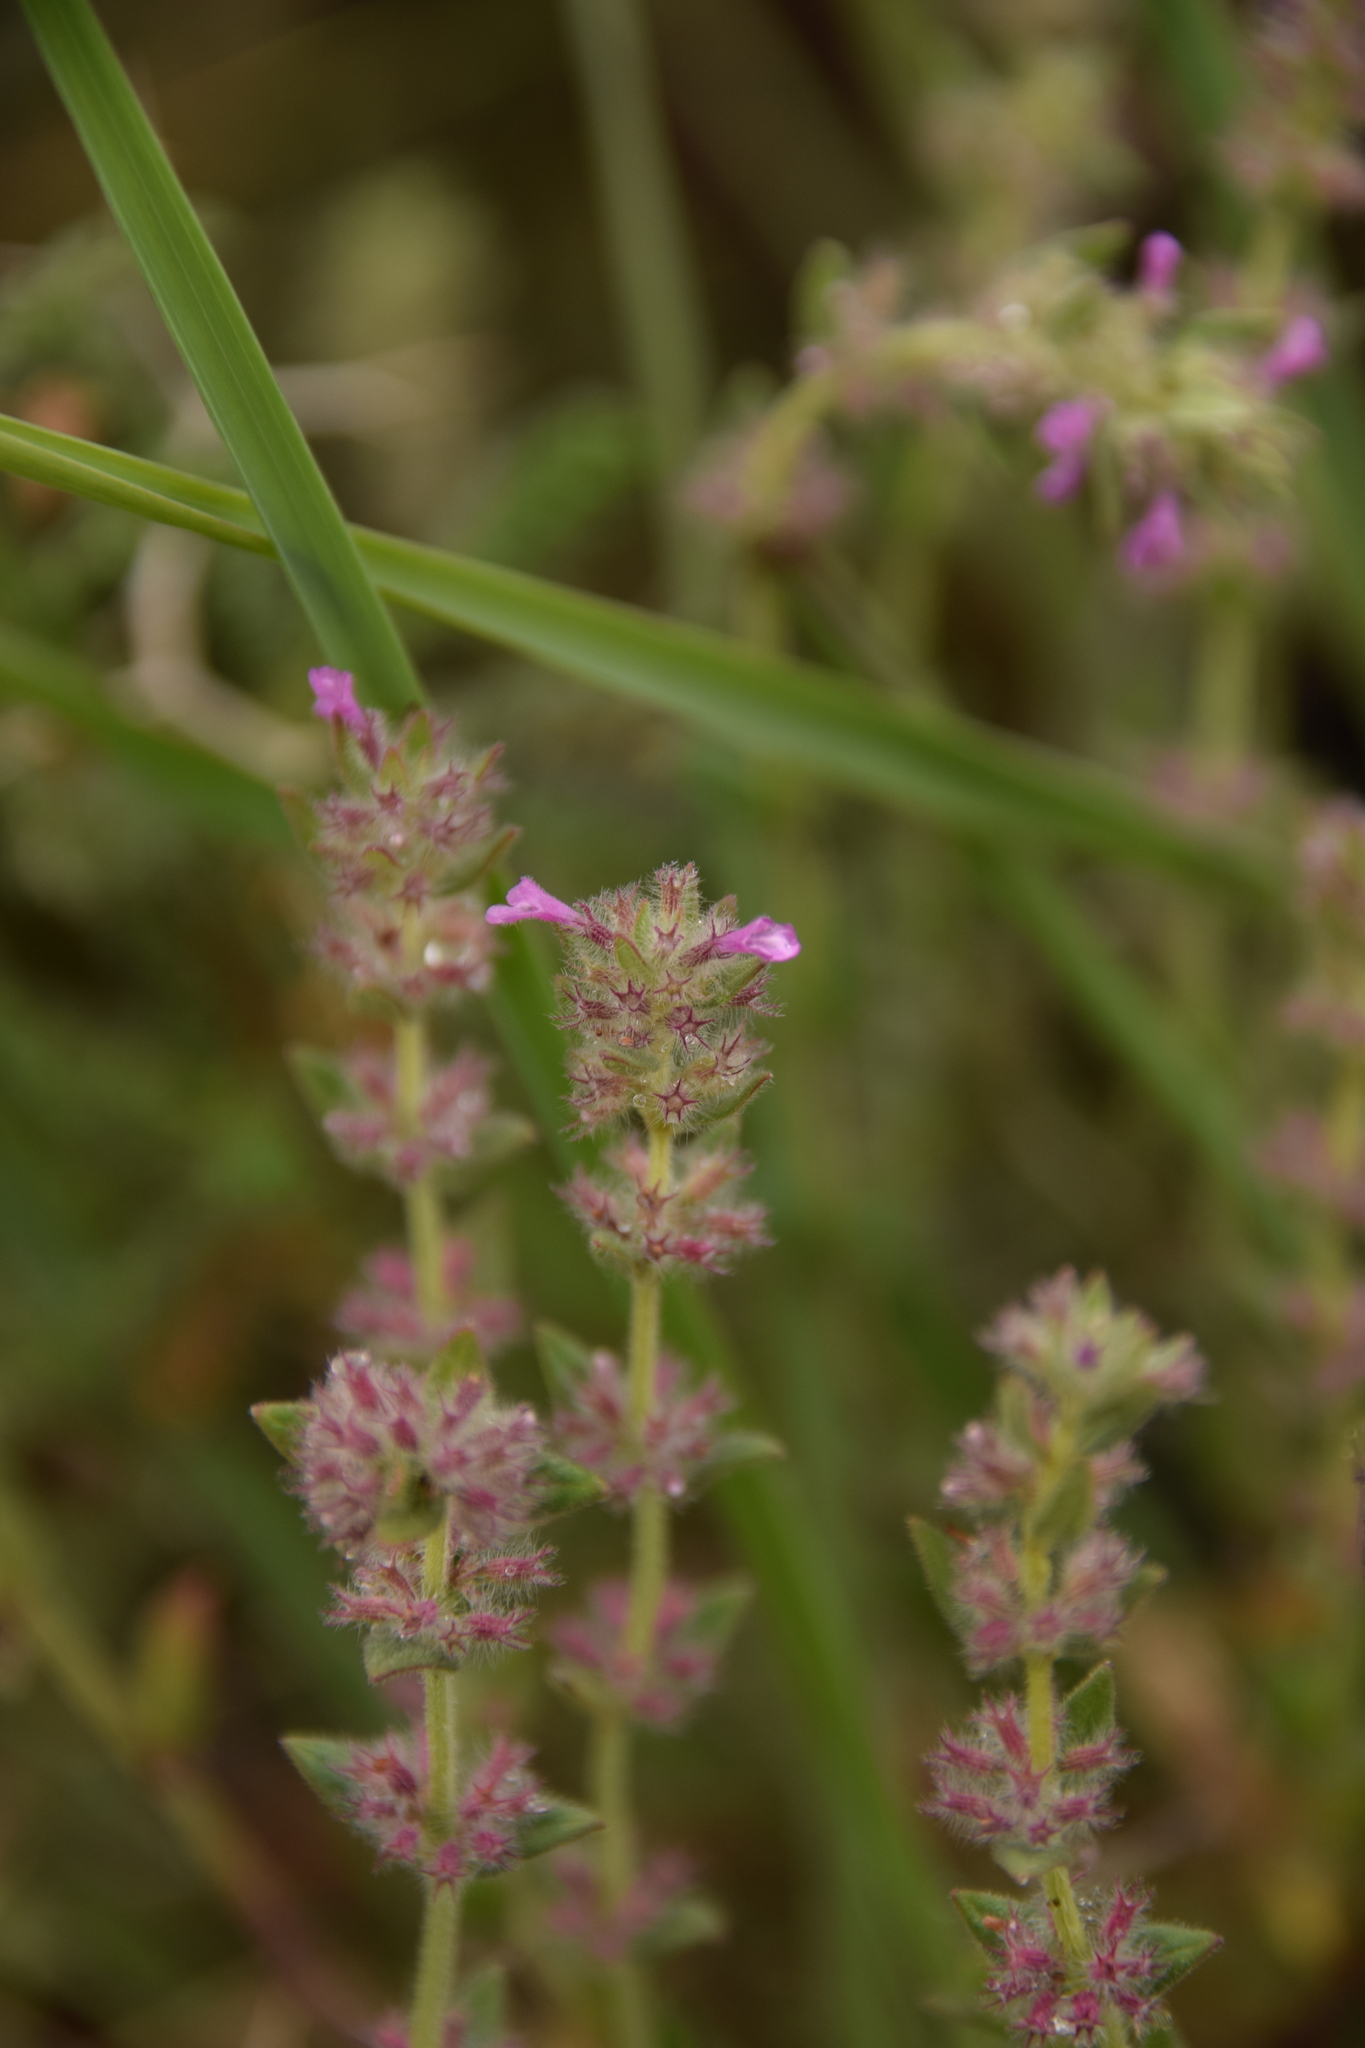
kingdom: Plantae
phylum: Tracheophyta
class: Magnoliopsida
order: Lamiales
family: Lamiaceae
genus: Micromeria
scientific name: Micromeria nervosa
